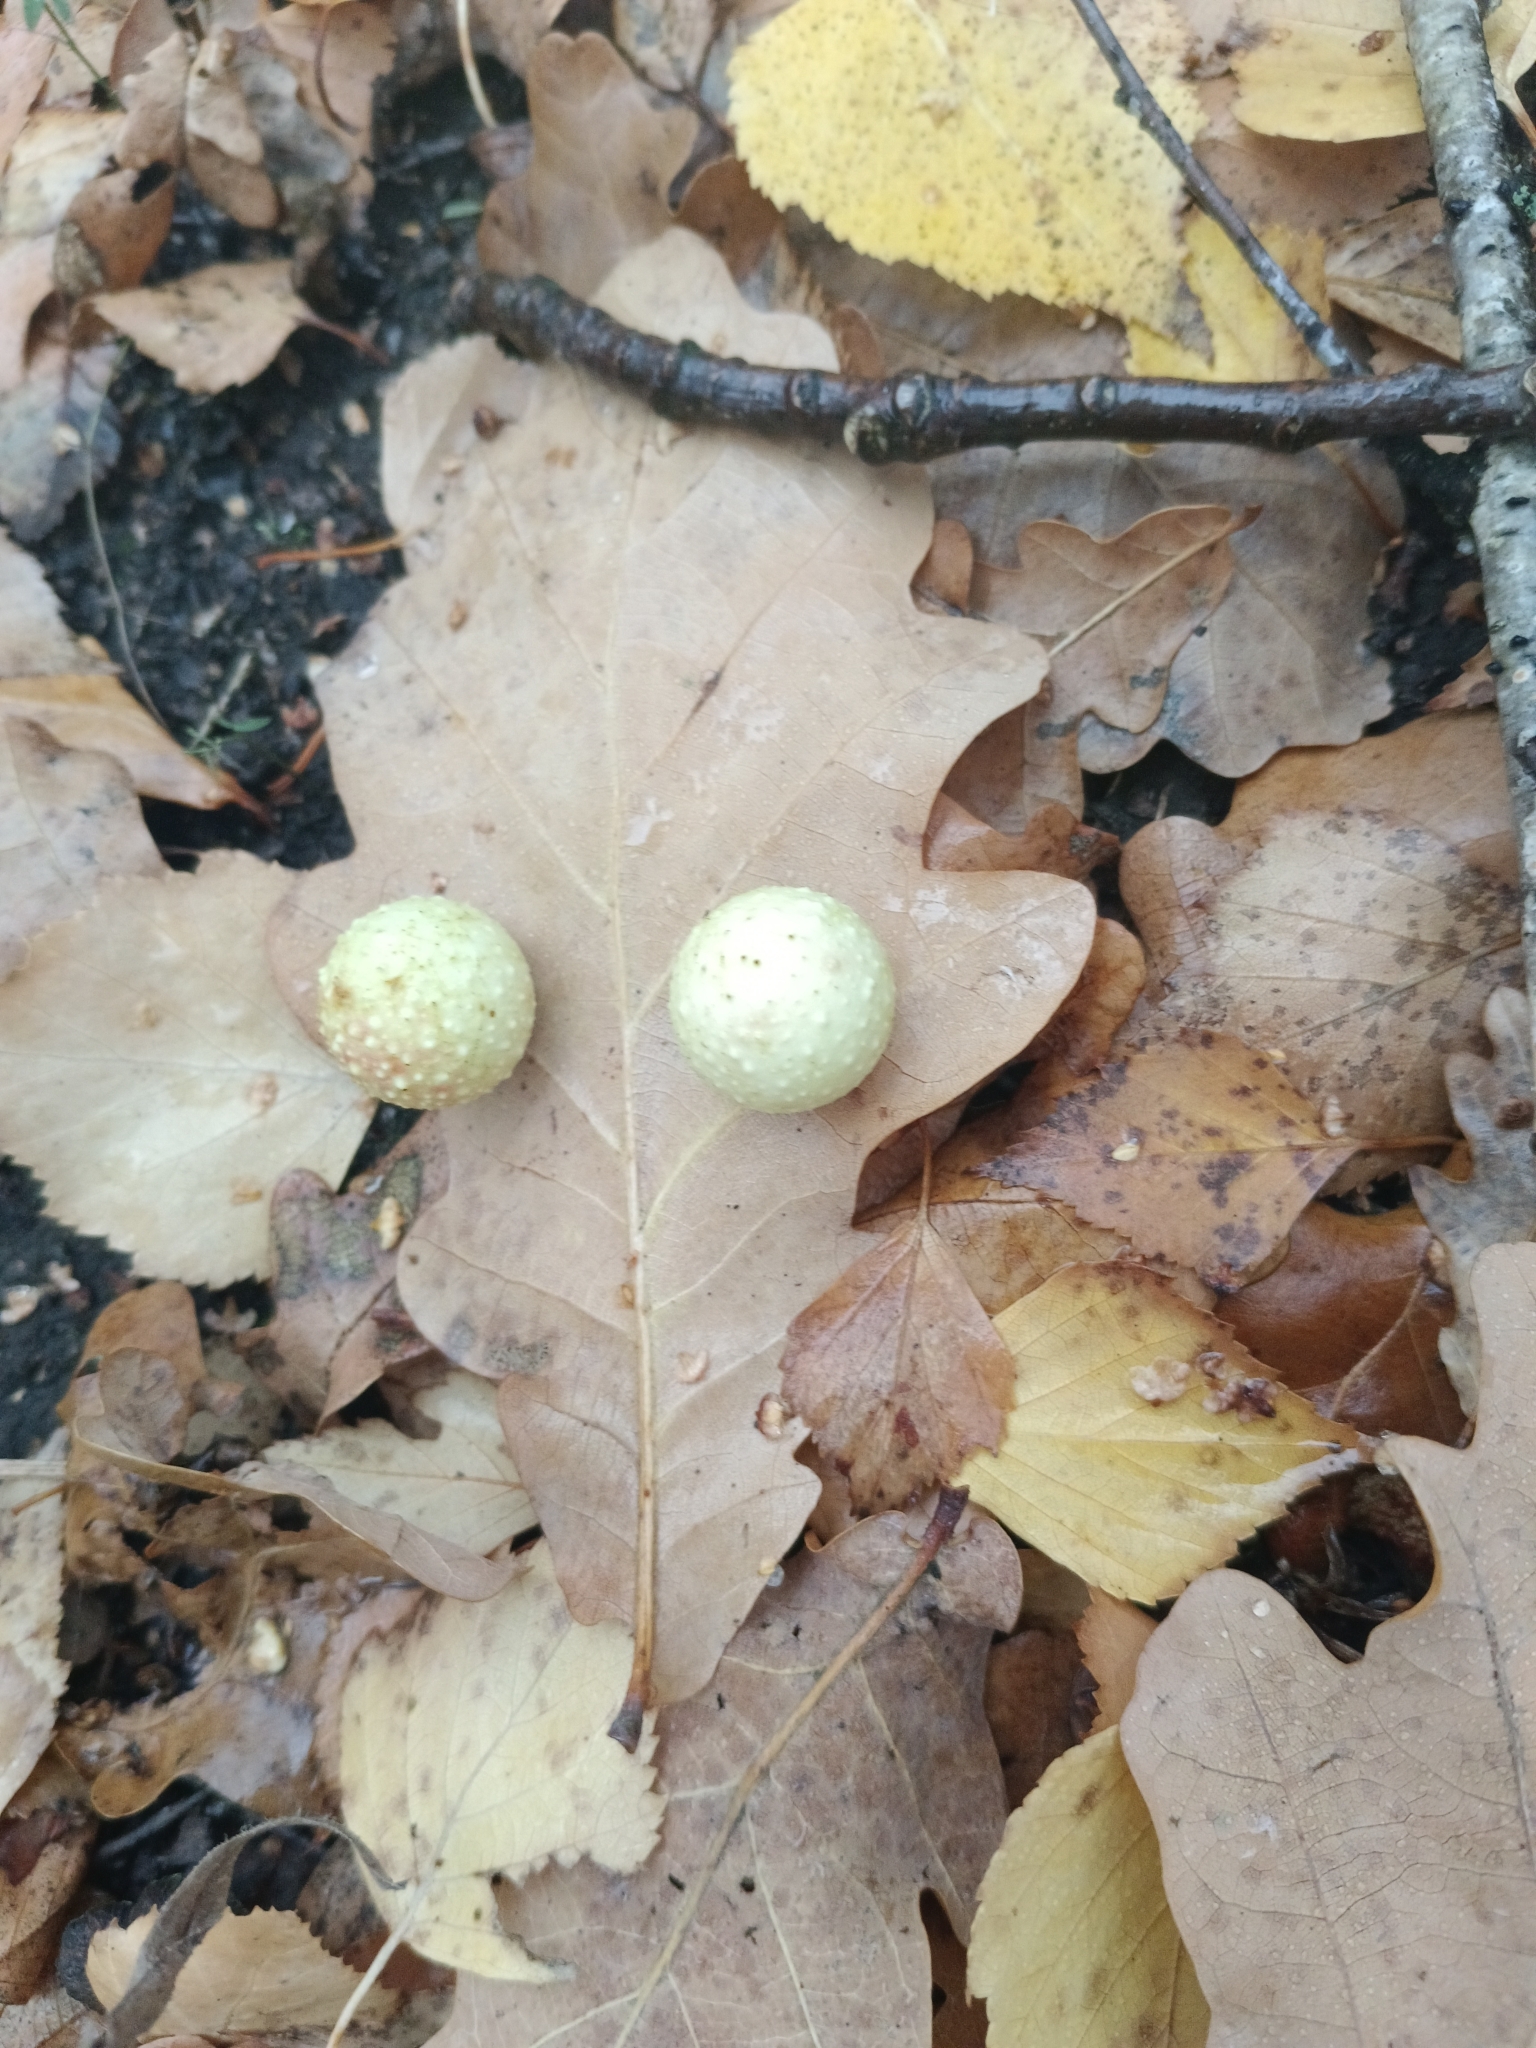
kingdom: Animalia
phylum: Arthropoda
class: Insecta
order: Hymenoptera
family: Cynipidae
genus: Cynips
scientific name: Cynips quercusfolii
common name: Cherry gall
